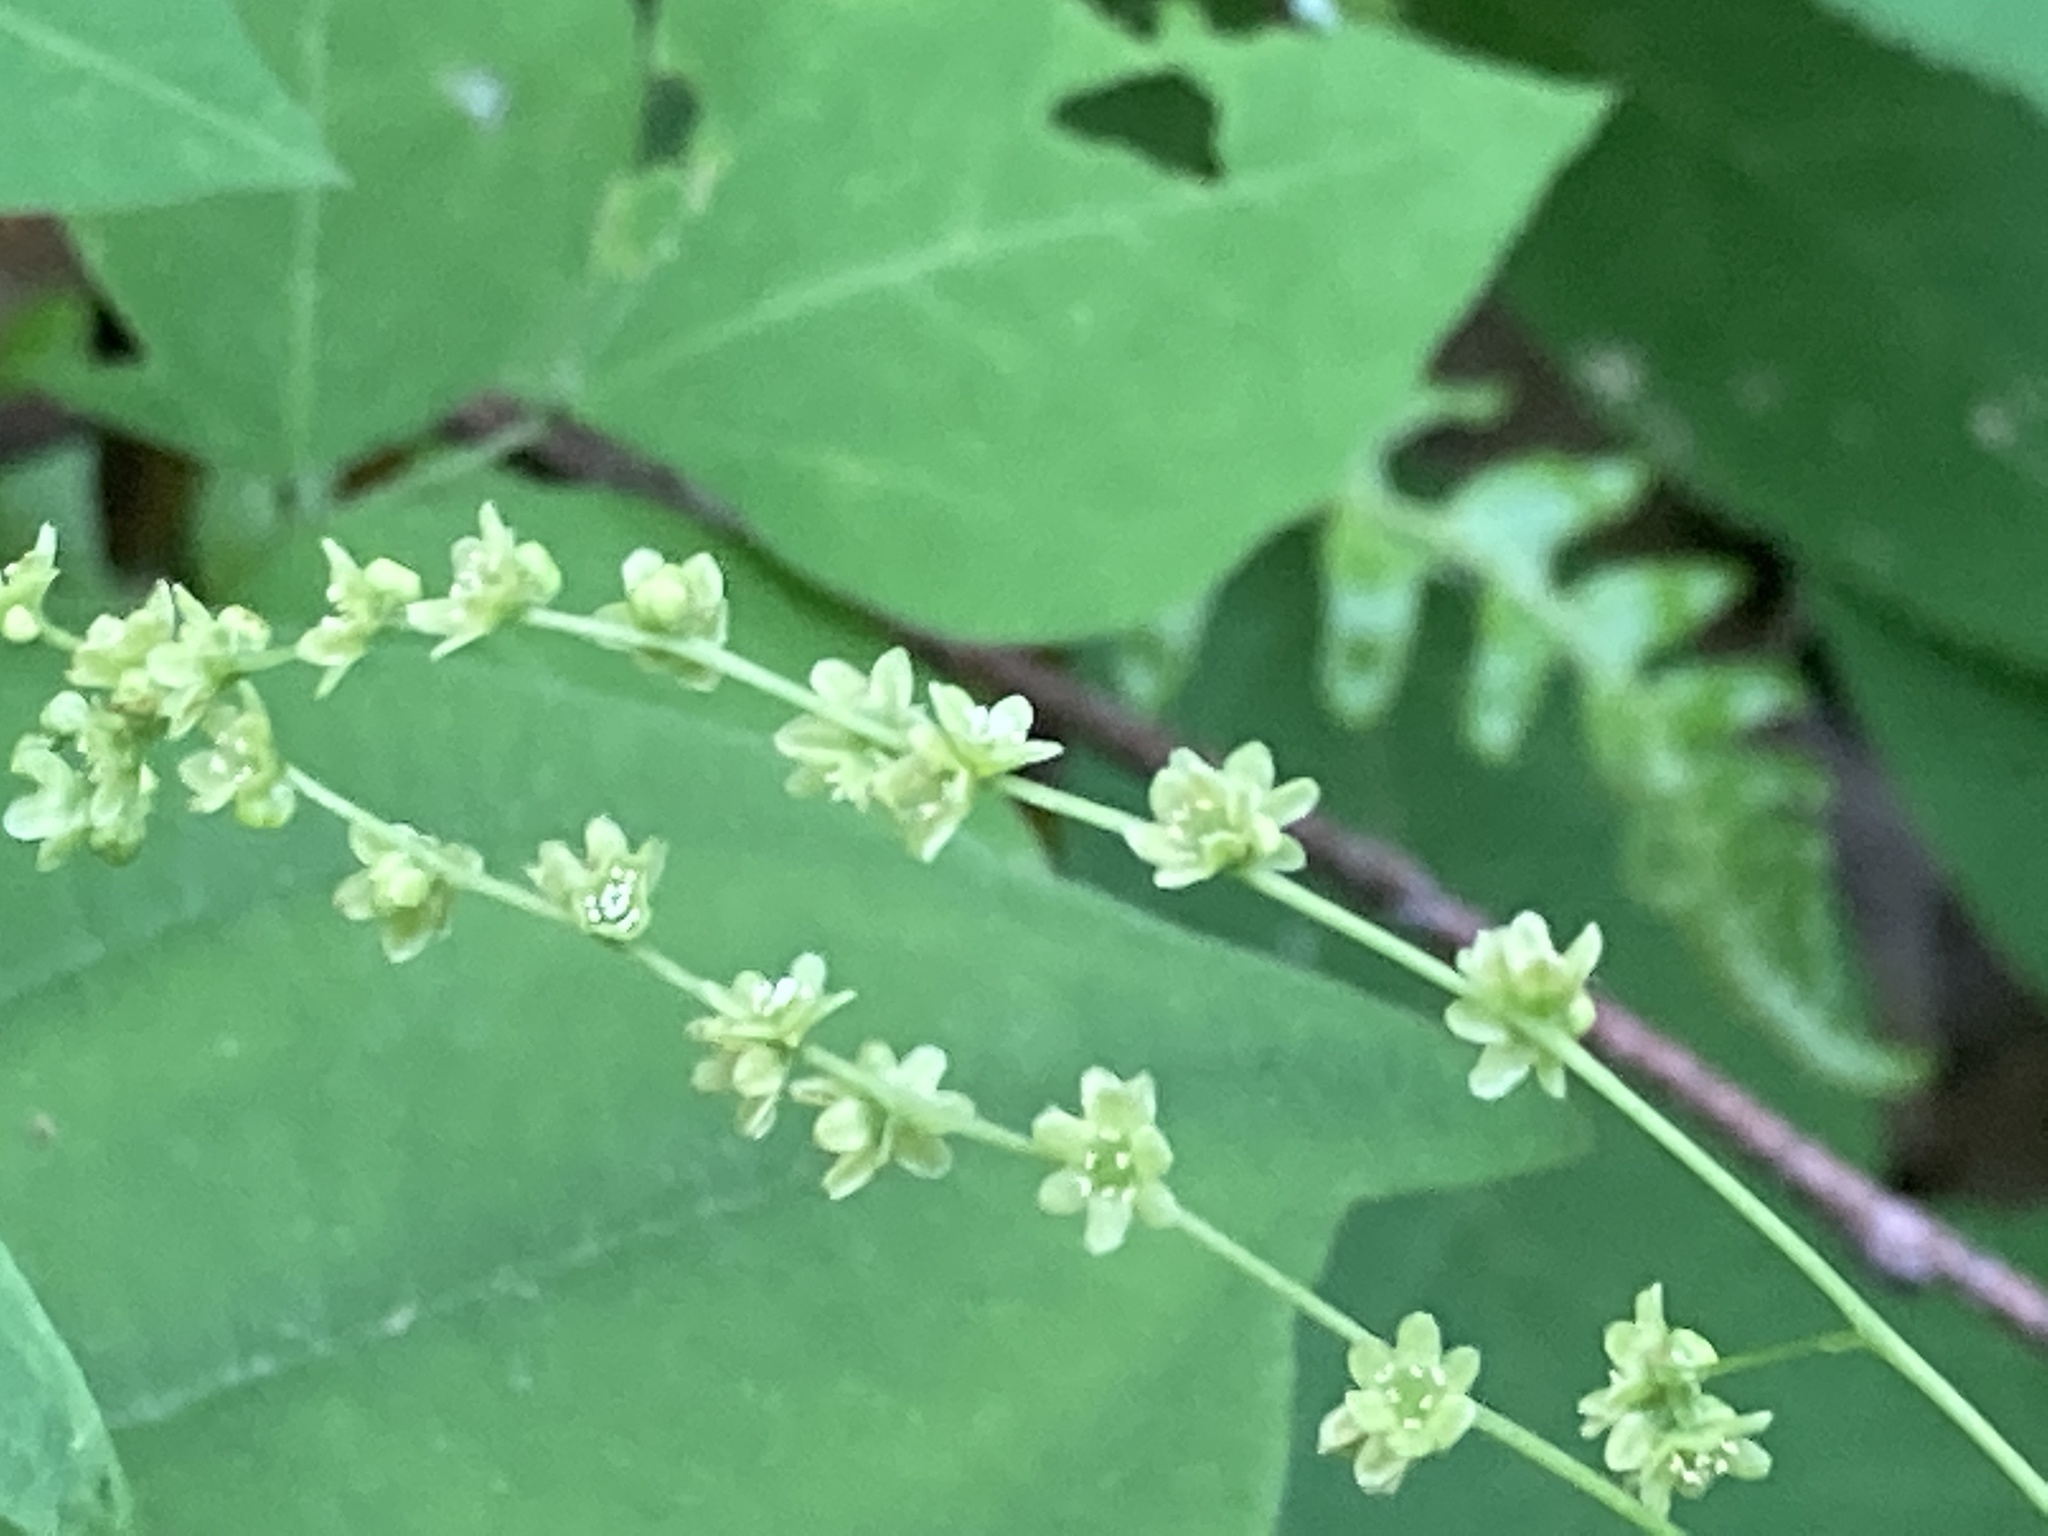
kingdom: Plantae
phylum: Tracheophyta
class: Liliopsida
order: Dioscoreales
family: Dioscoreaceae
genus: Dioscorea
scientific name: Dioscorea villosa
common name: Wild yam
